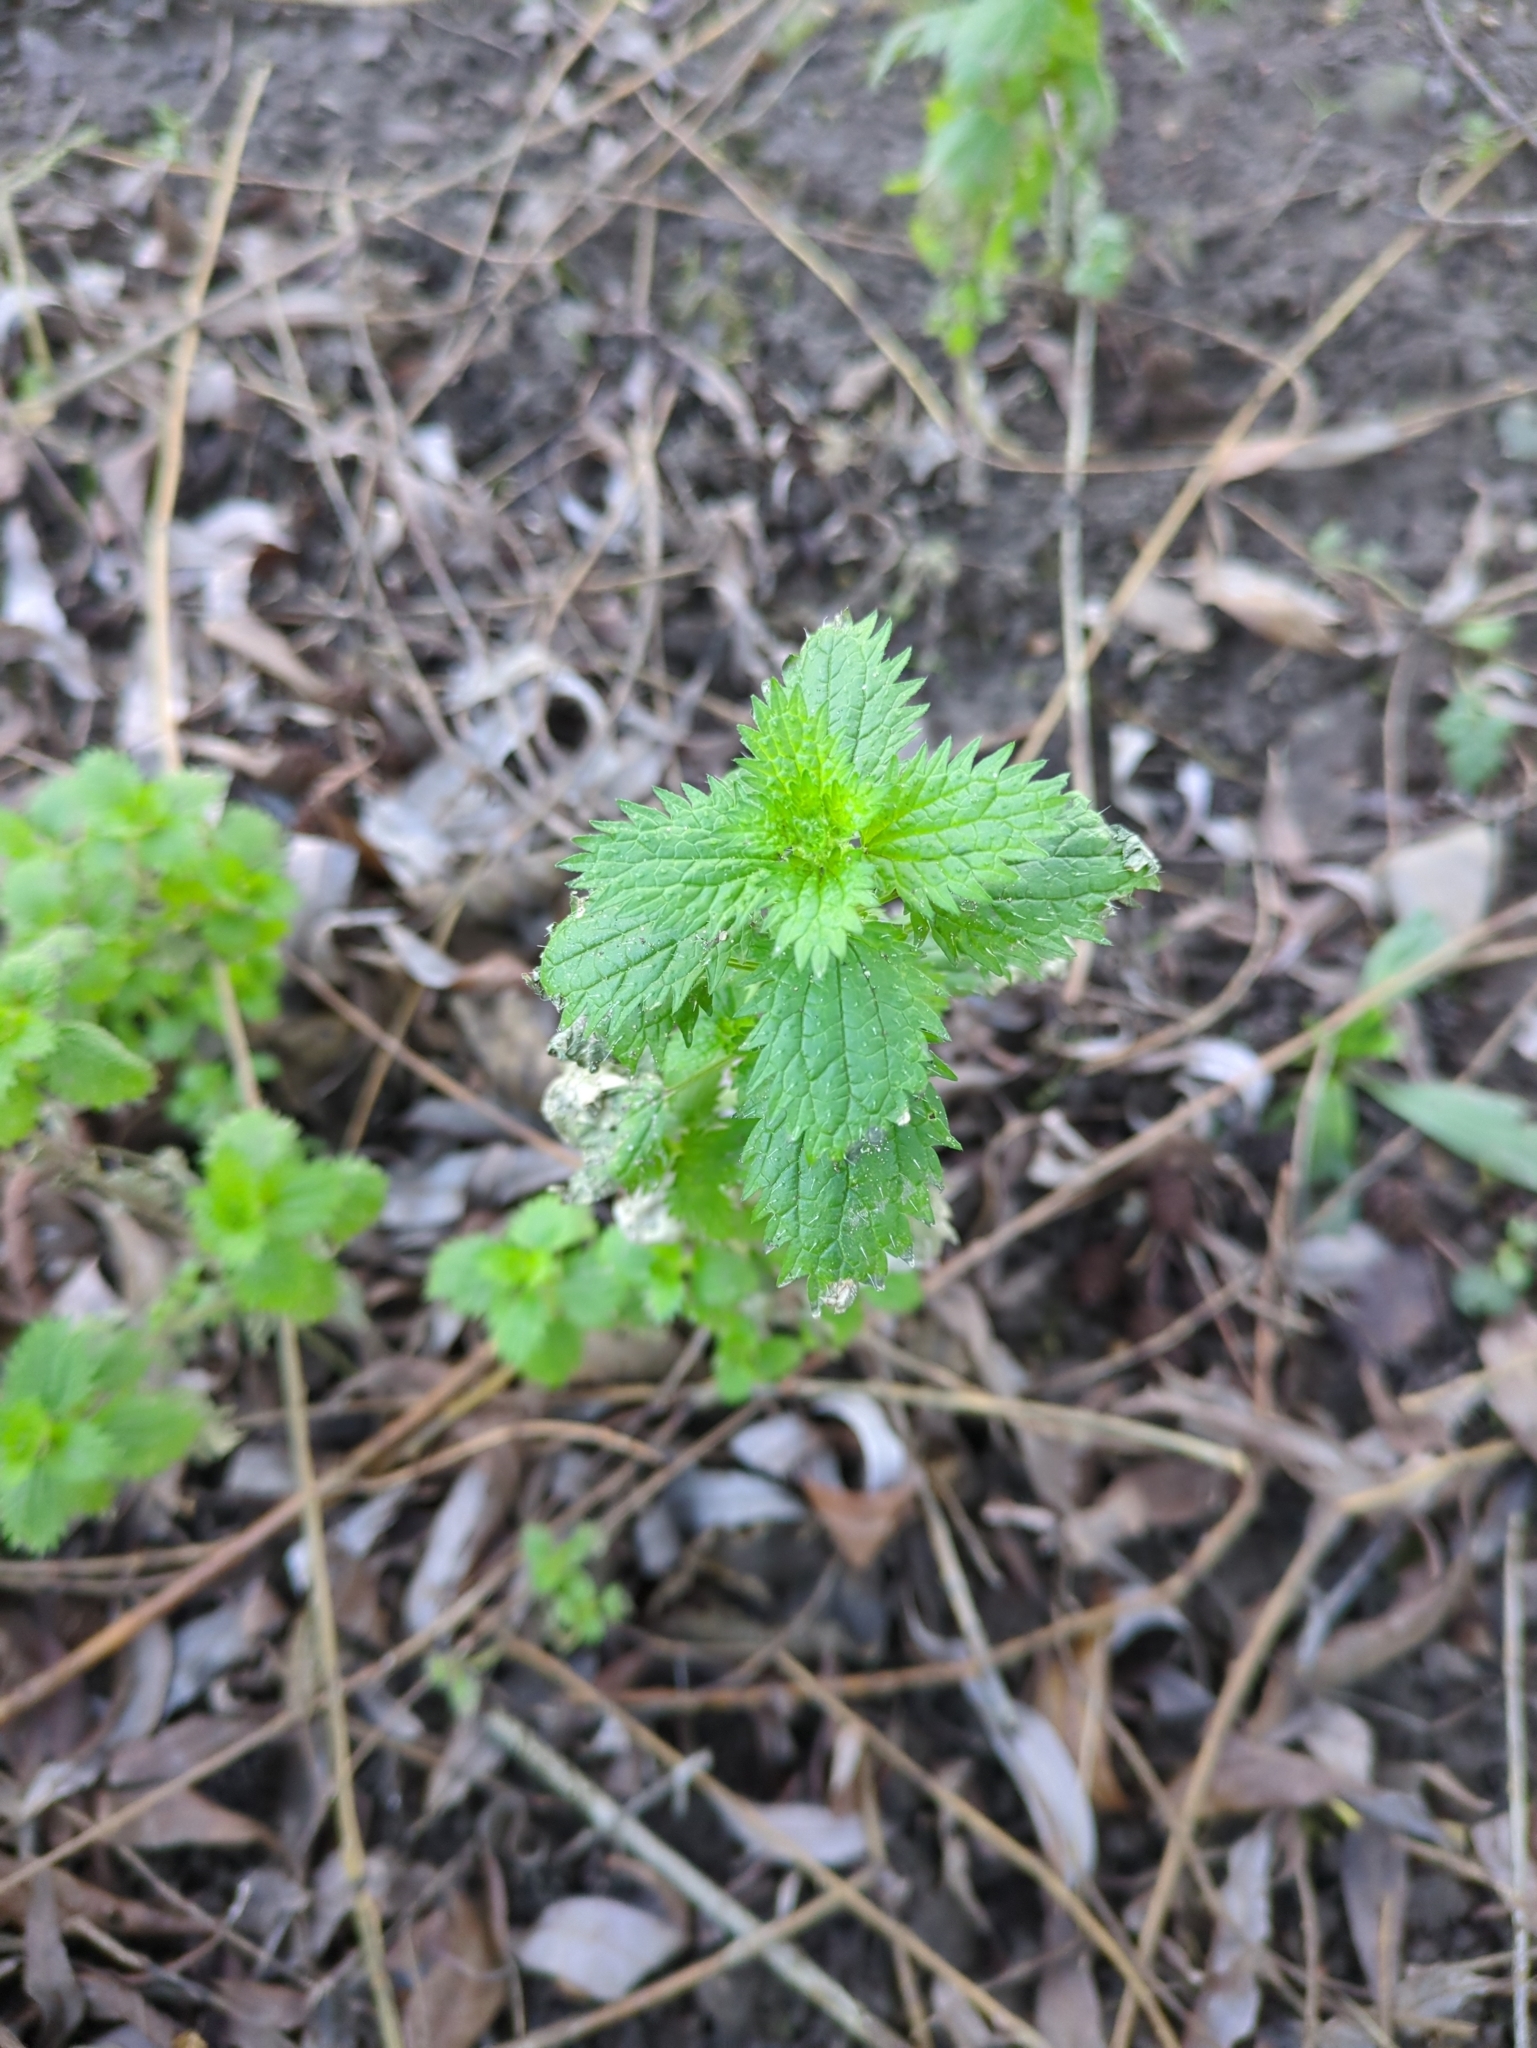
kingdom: Plantae
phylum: Tracheophyta
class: Magnoliopsida
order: Rosales
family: Urticaceae
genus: Urtica
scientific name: Urtica urens
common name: Dwarf nettle
